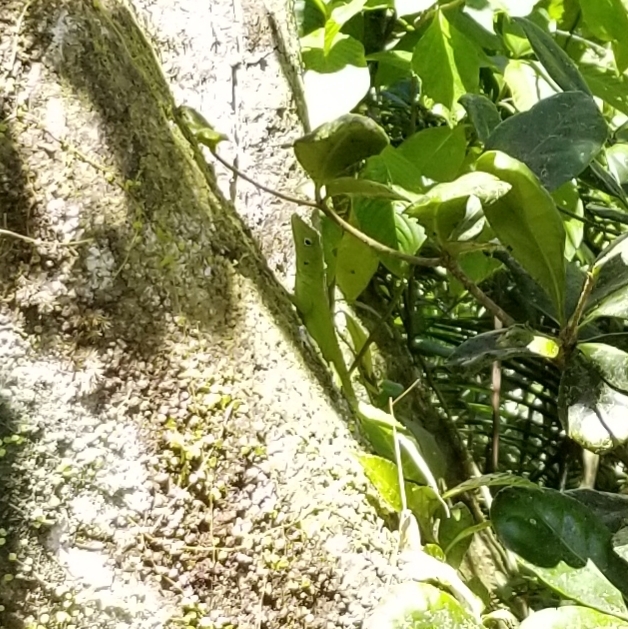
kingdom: Animalia
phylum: Chordata
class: Squamata
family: Dactyloidae
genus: Anolis
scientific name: Anolis evermanni
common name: Emerald anole
